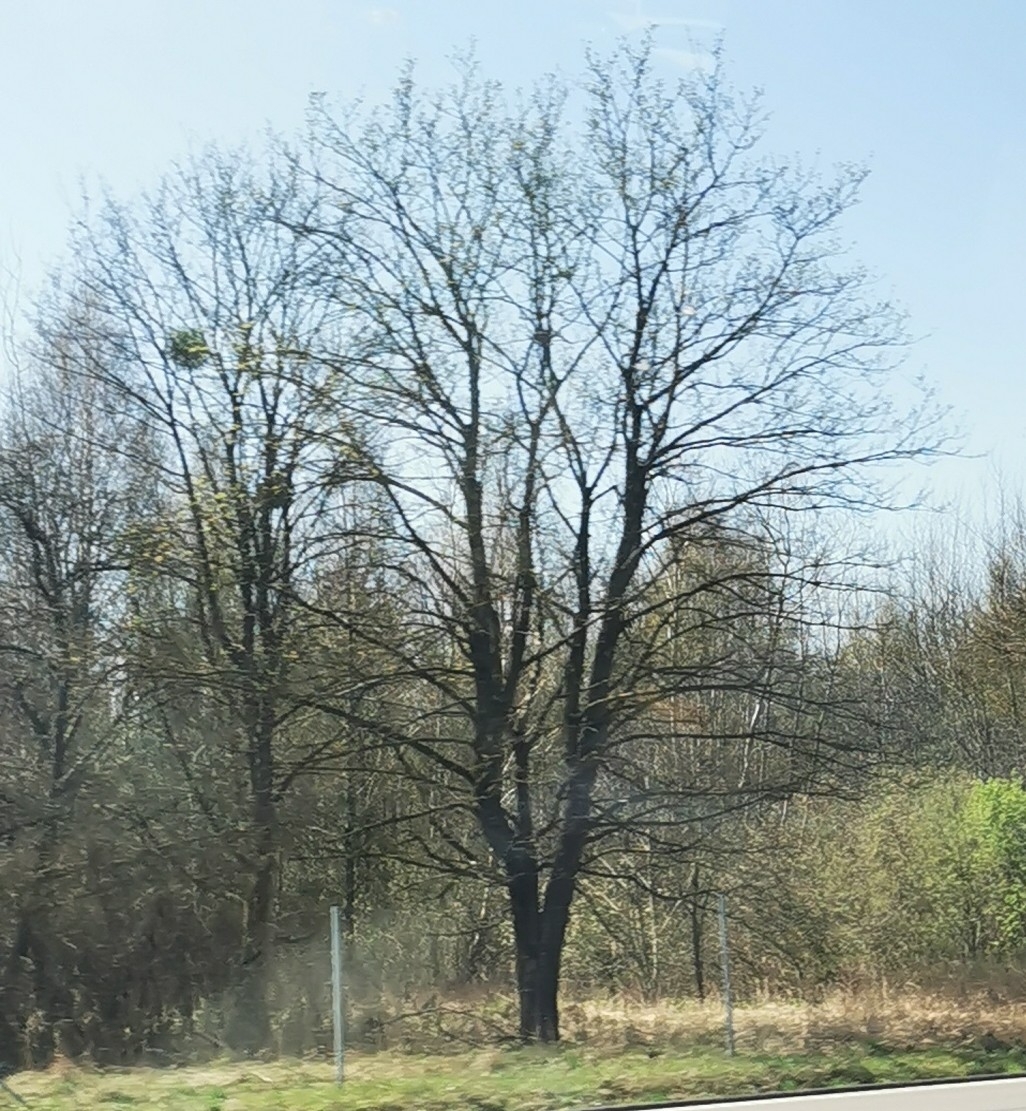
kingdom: Plantae
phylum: Tracheophyta
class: Magnoliopsida
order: Santalales
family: Viscaceae
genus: Viscum
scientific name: Viscum album
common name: Mistletoe
